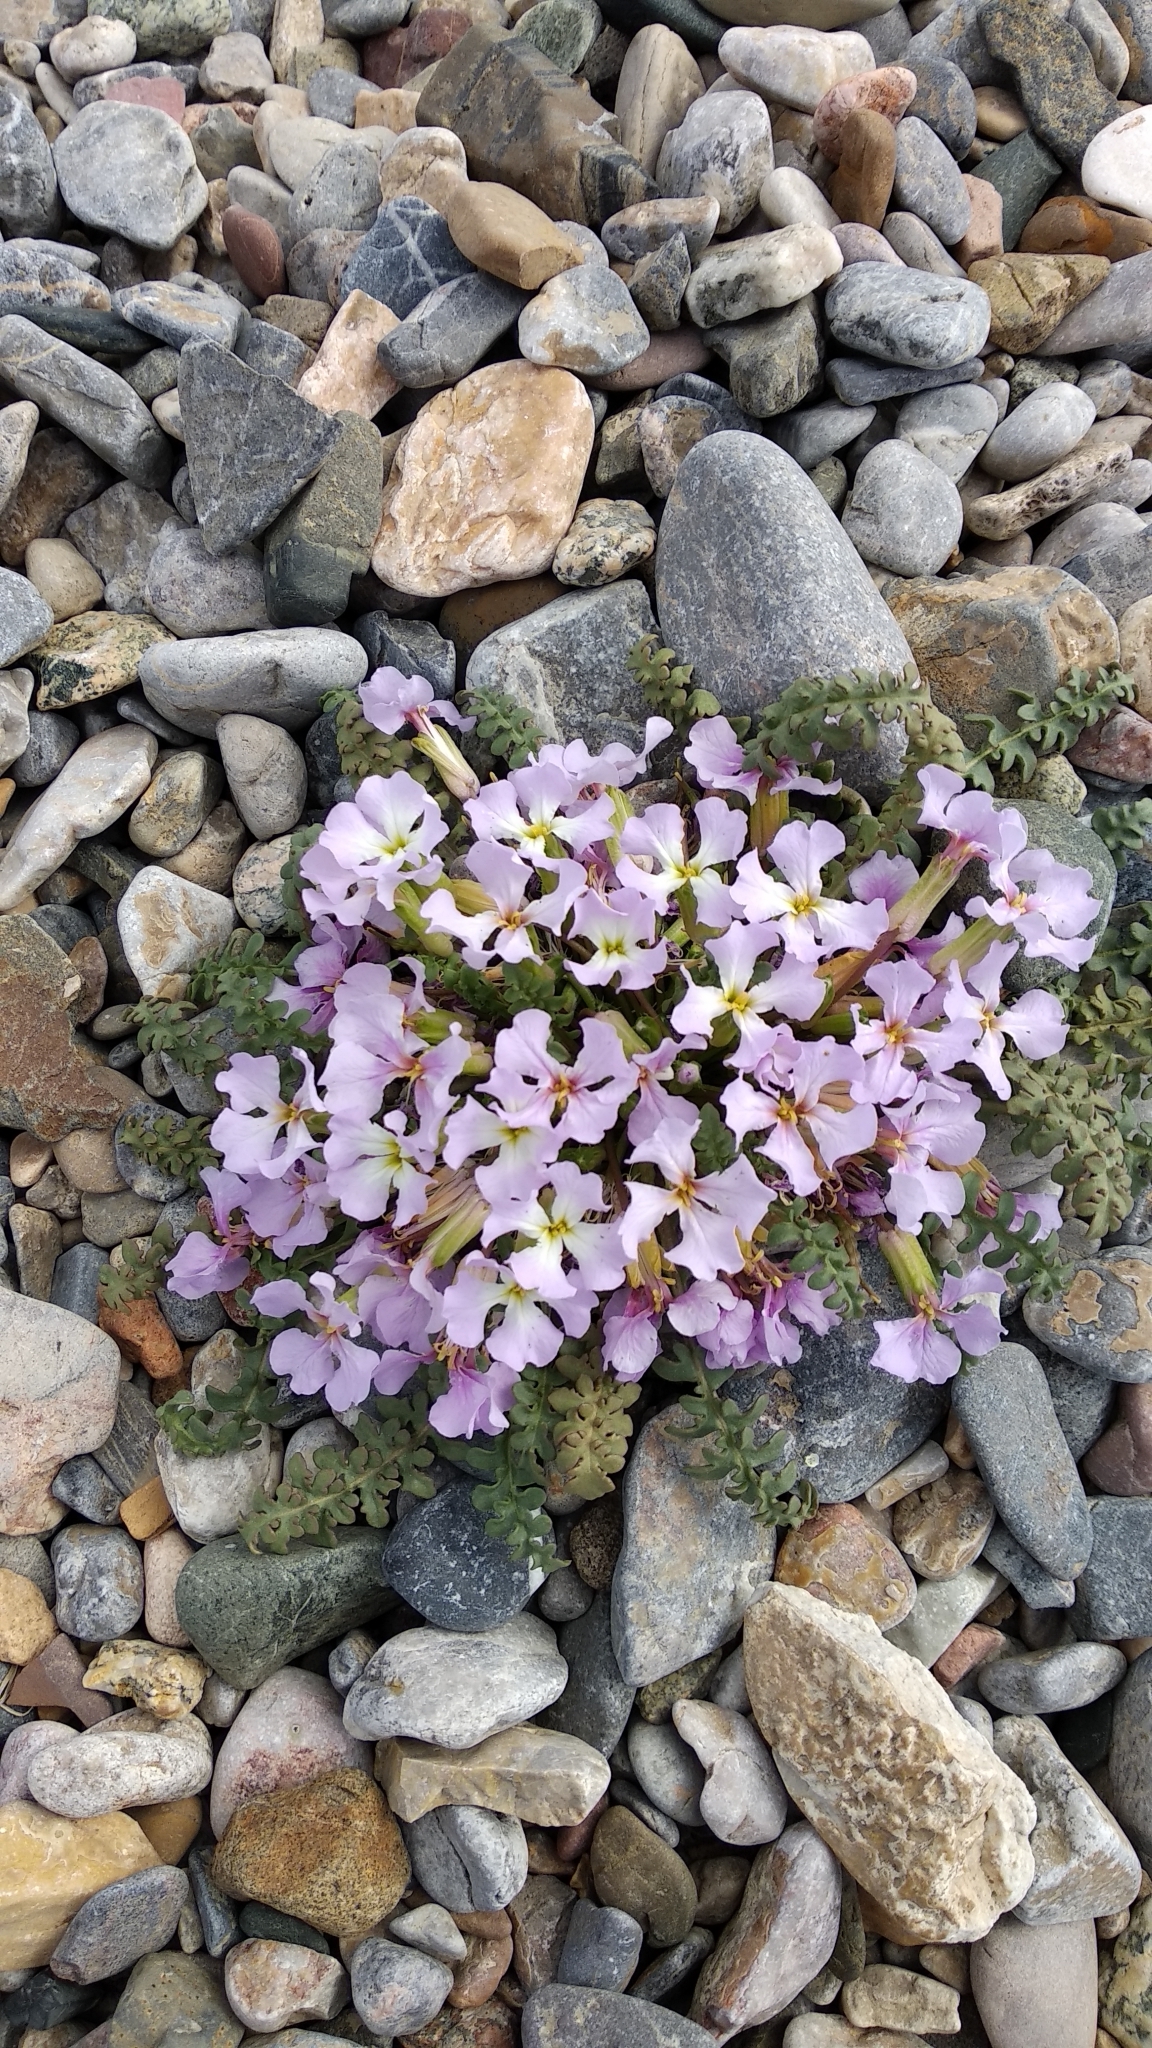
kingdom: Plantae
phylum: Tracheophyta
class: Magnoliopsida
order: Brassicales
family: Brassicaceae
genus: Chorispora
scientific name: Chorispora bungeana
